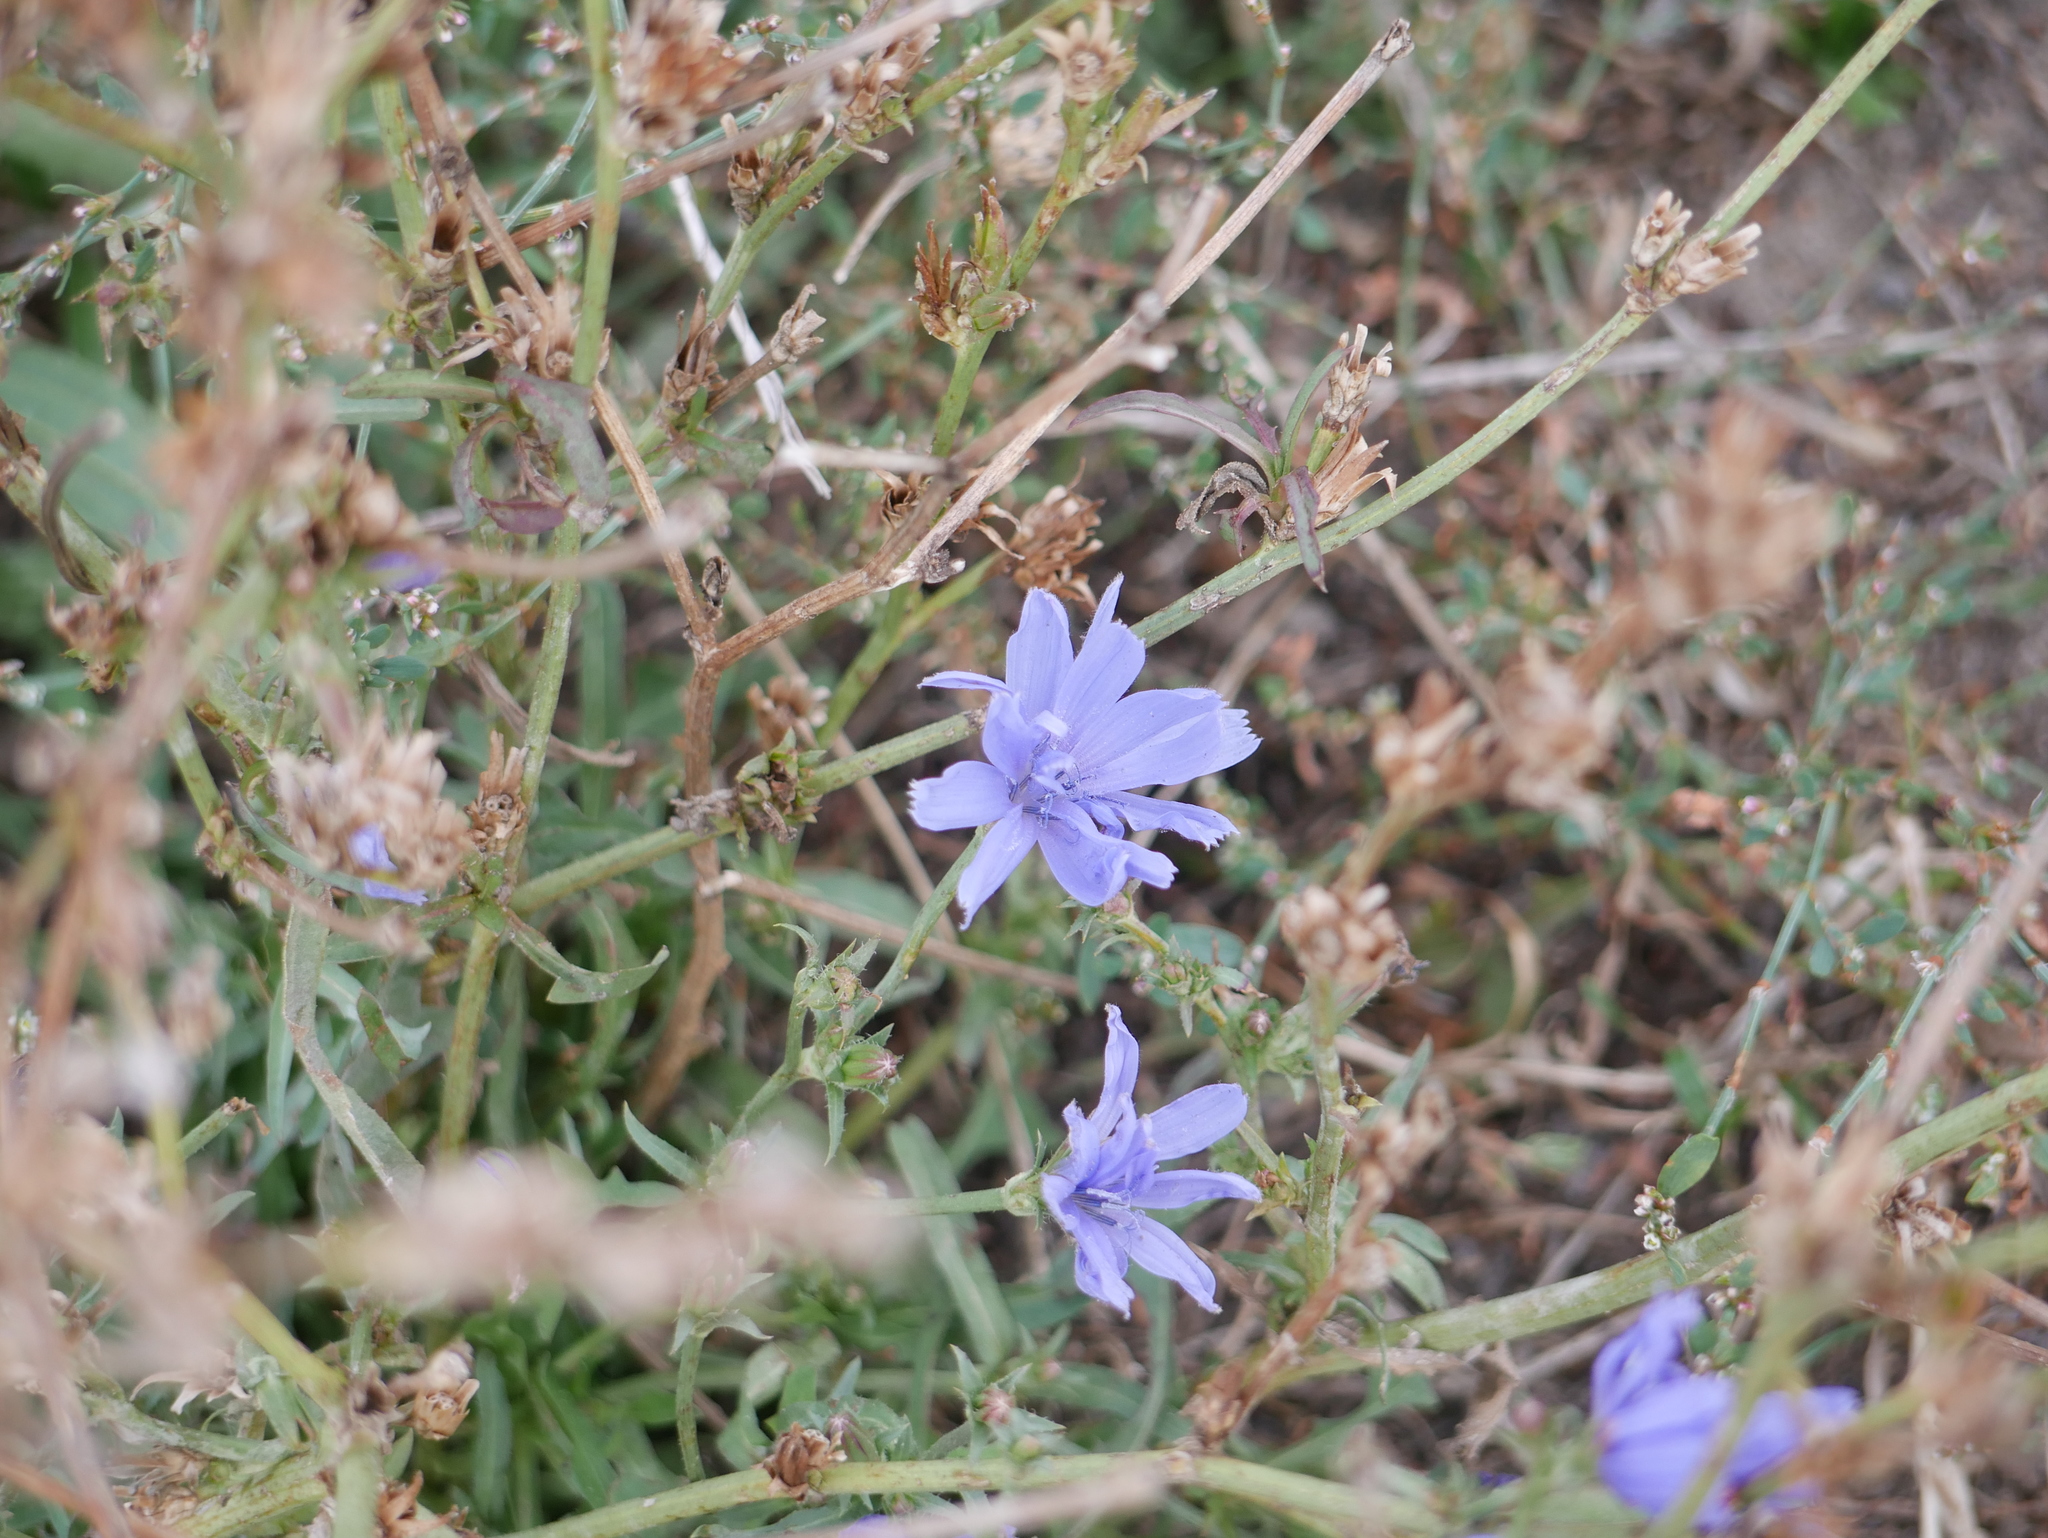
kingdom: Plantae
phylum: Tracheophyta
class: Magnoliopsida
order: Asterales
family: Asteraceae
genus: Cichorium
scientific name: Cichorium intybus
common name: Chicory
